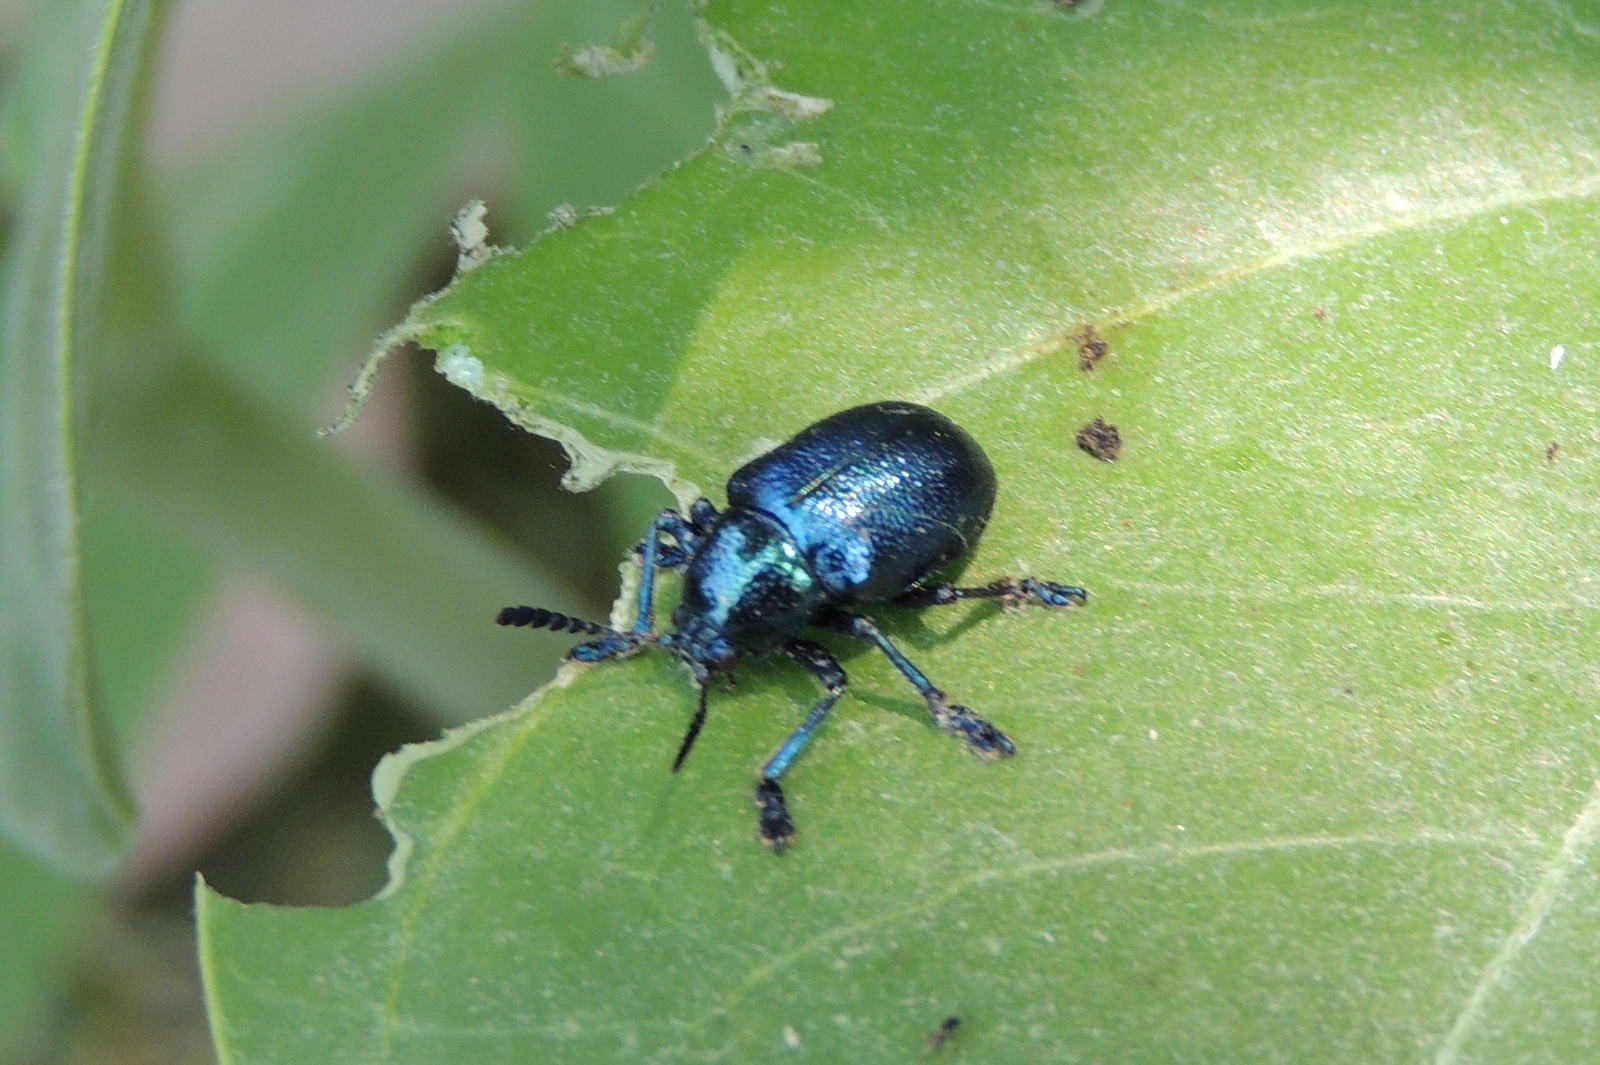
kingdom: Animalia
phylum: Arthropoda
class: Insecta
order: Coleoptera
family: Chrysomelidae
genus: Platycorynus
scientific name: Platycorynus
